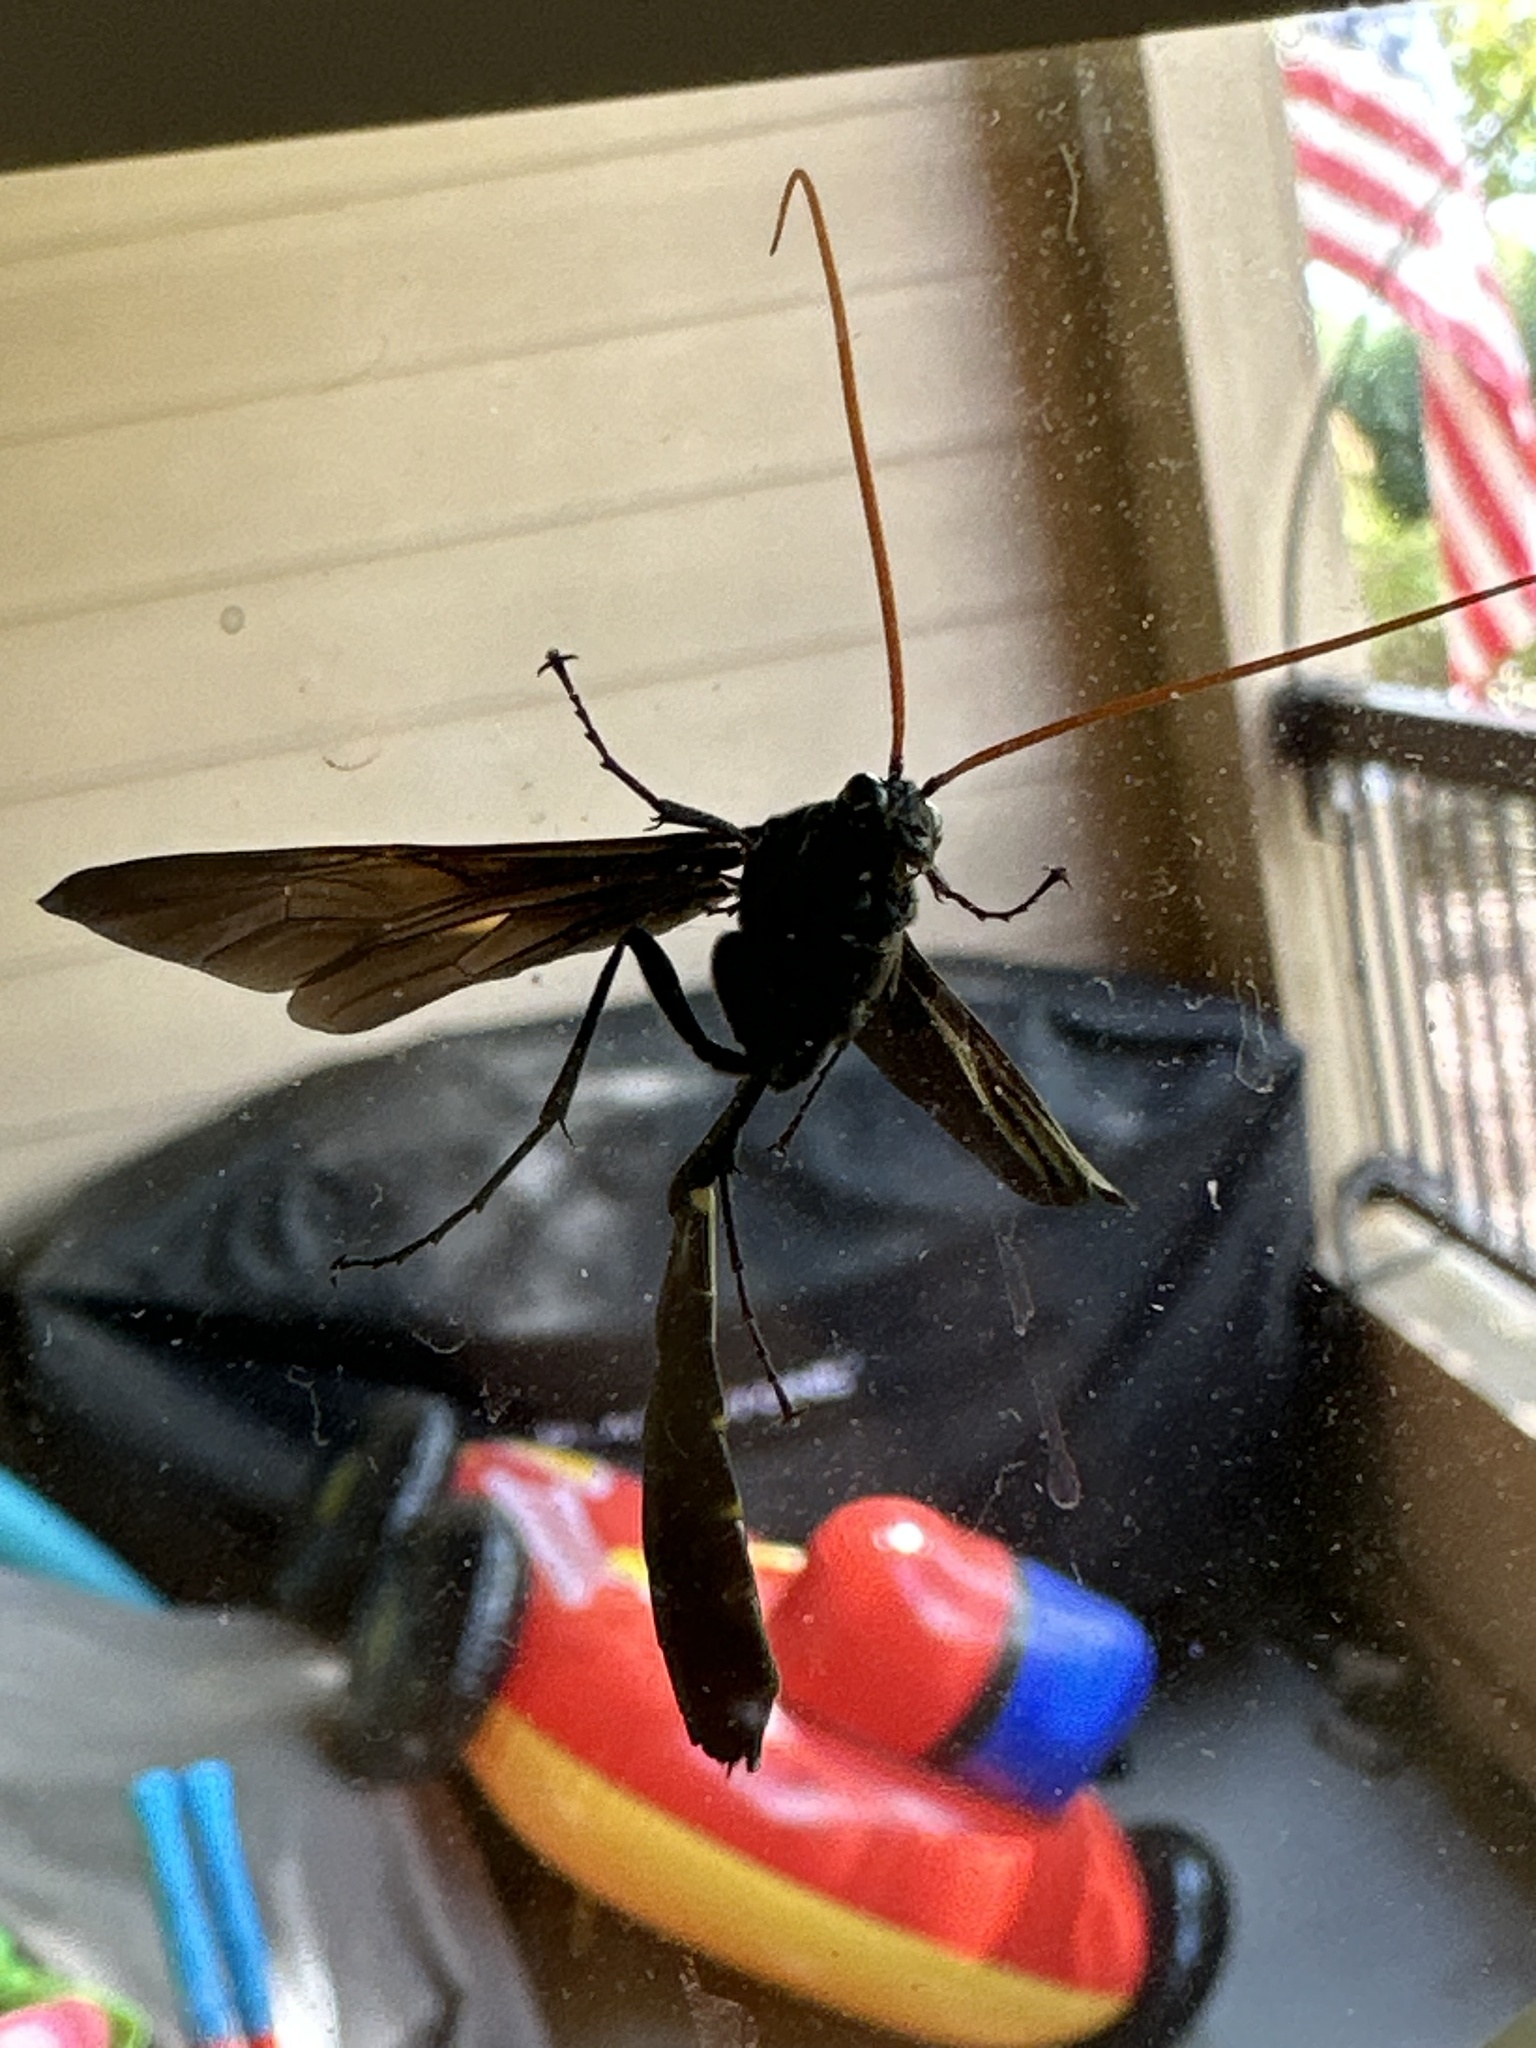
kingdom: Animalia
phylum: Arthropoda
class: Insecta
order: Hymenoptera
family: Ichneumonidae
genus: Thyreodon
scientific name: Thyreodon atricolor
